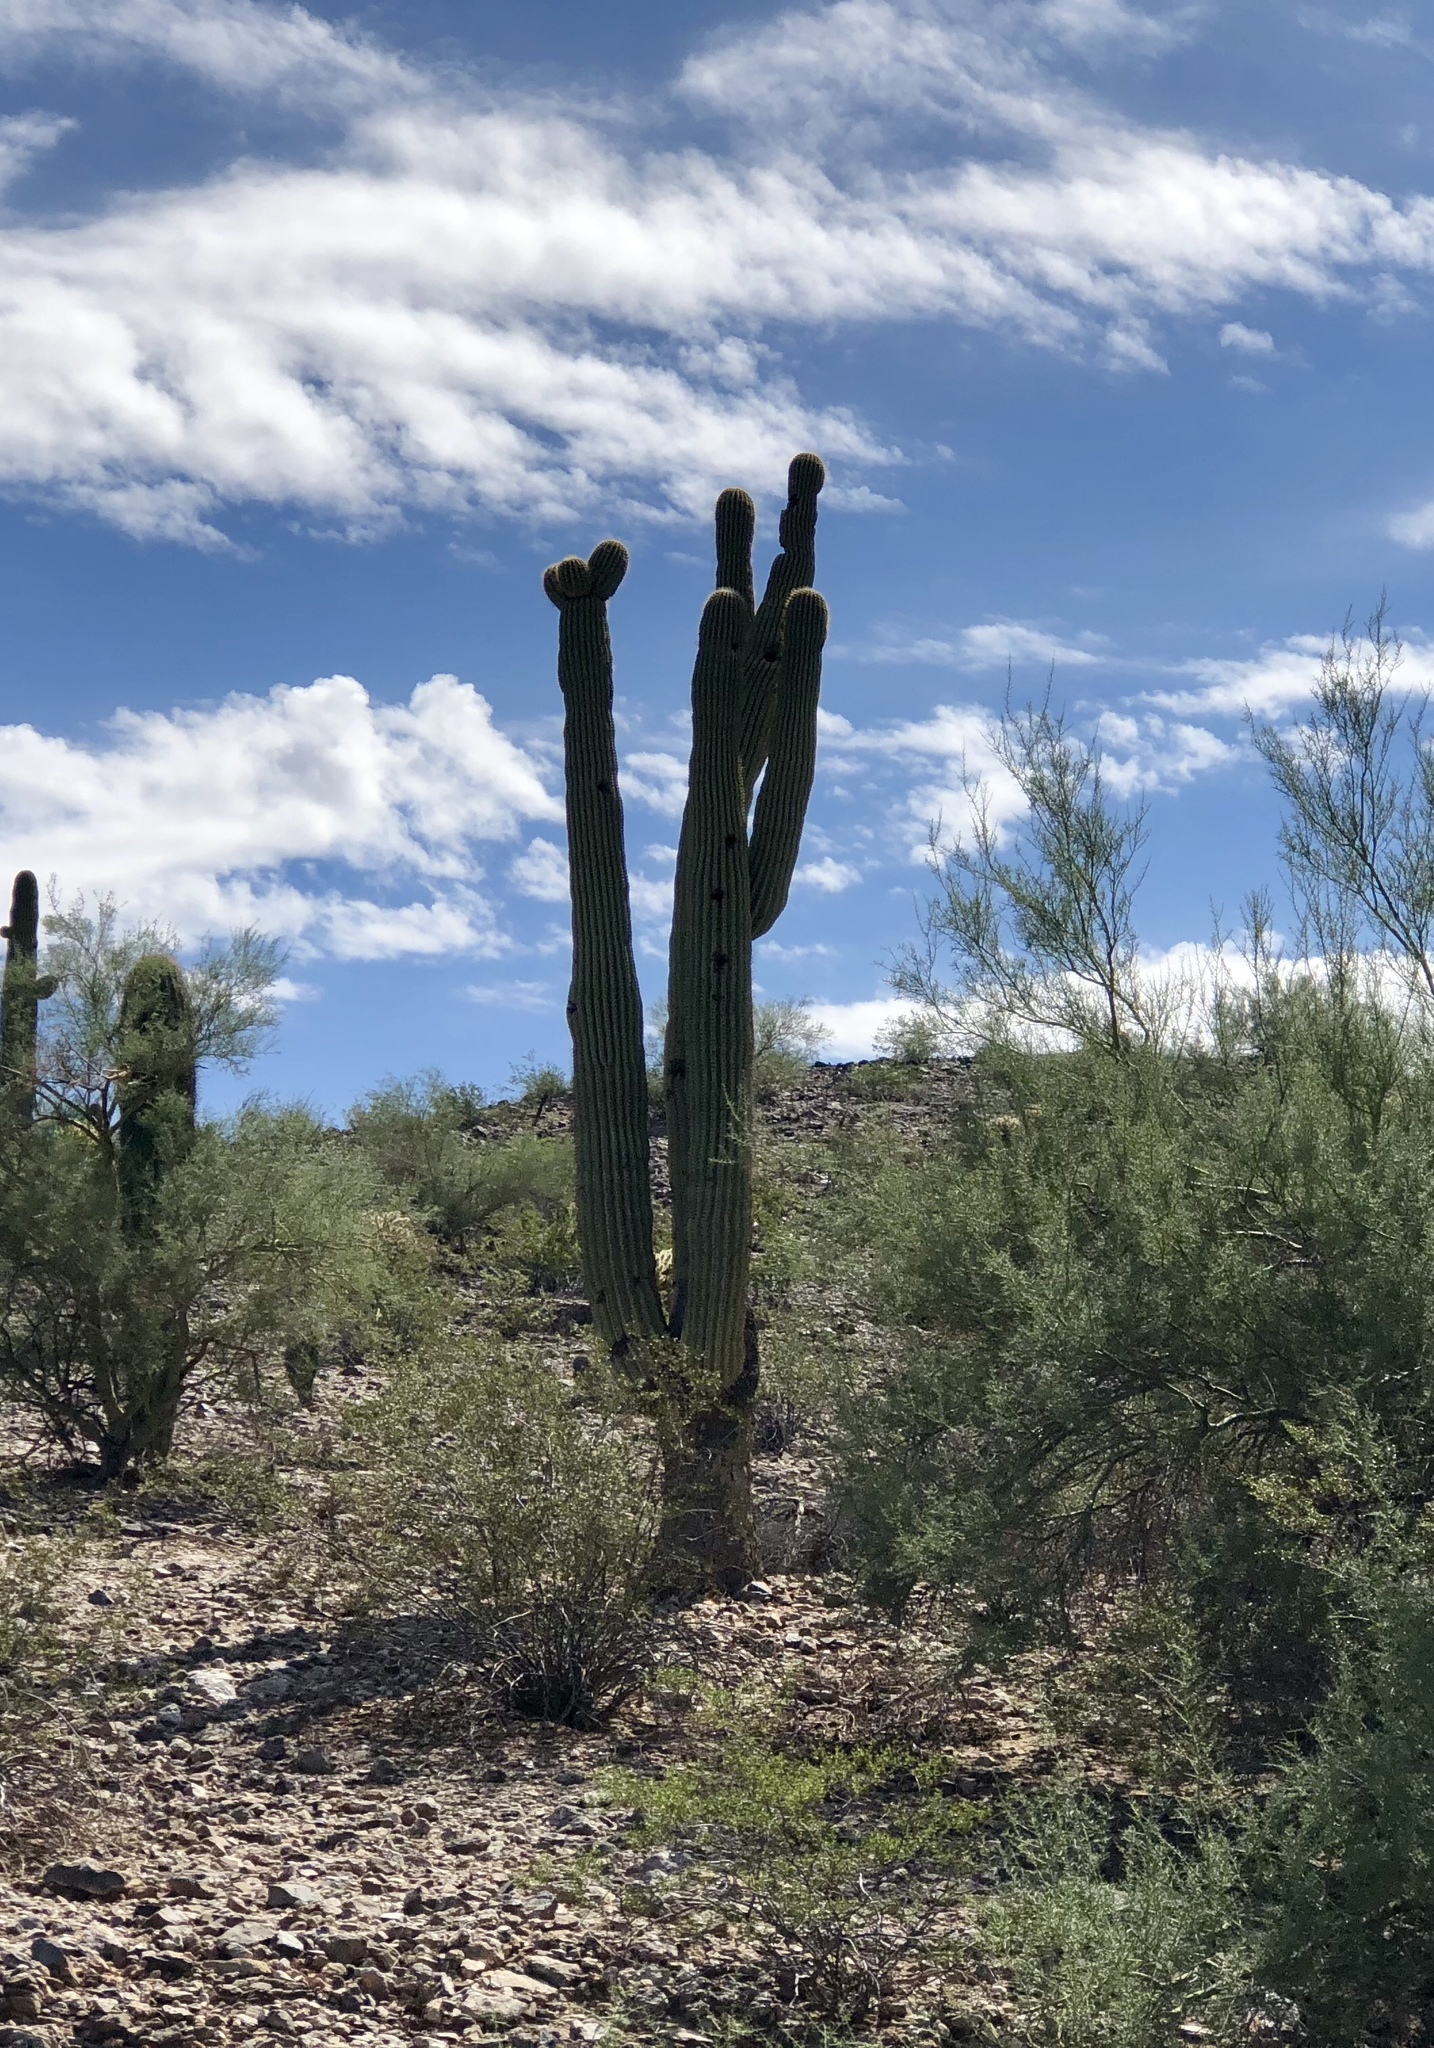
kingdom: Plantae
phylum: Tracheophyta
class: Magnoliopsida
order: Caryophyllales
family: Cactaceae
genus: Carnegiea
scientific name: Carnegiea gigantea
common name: Saguaro
